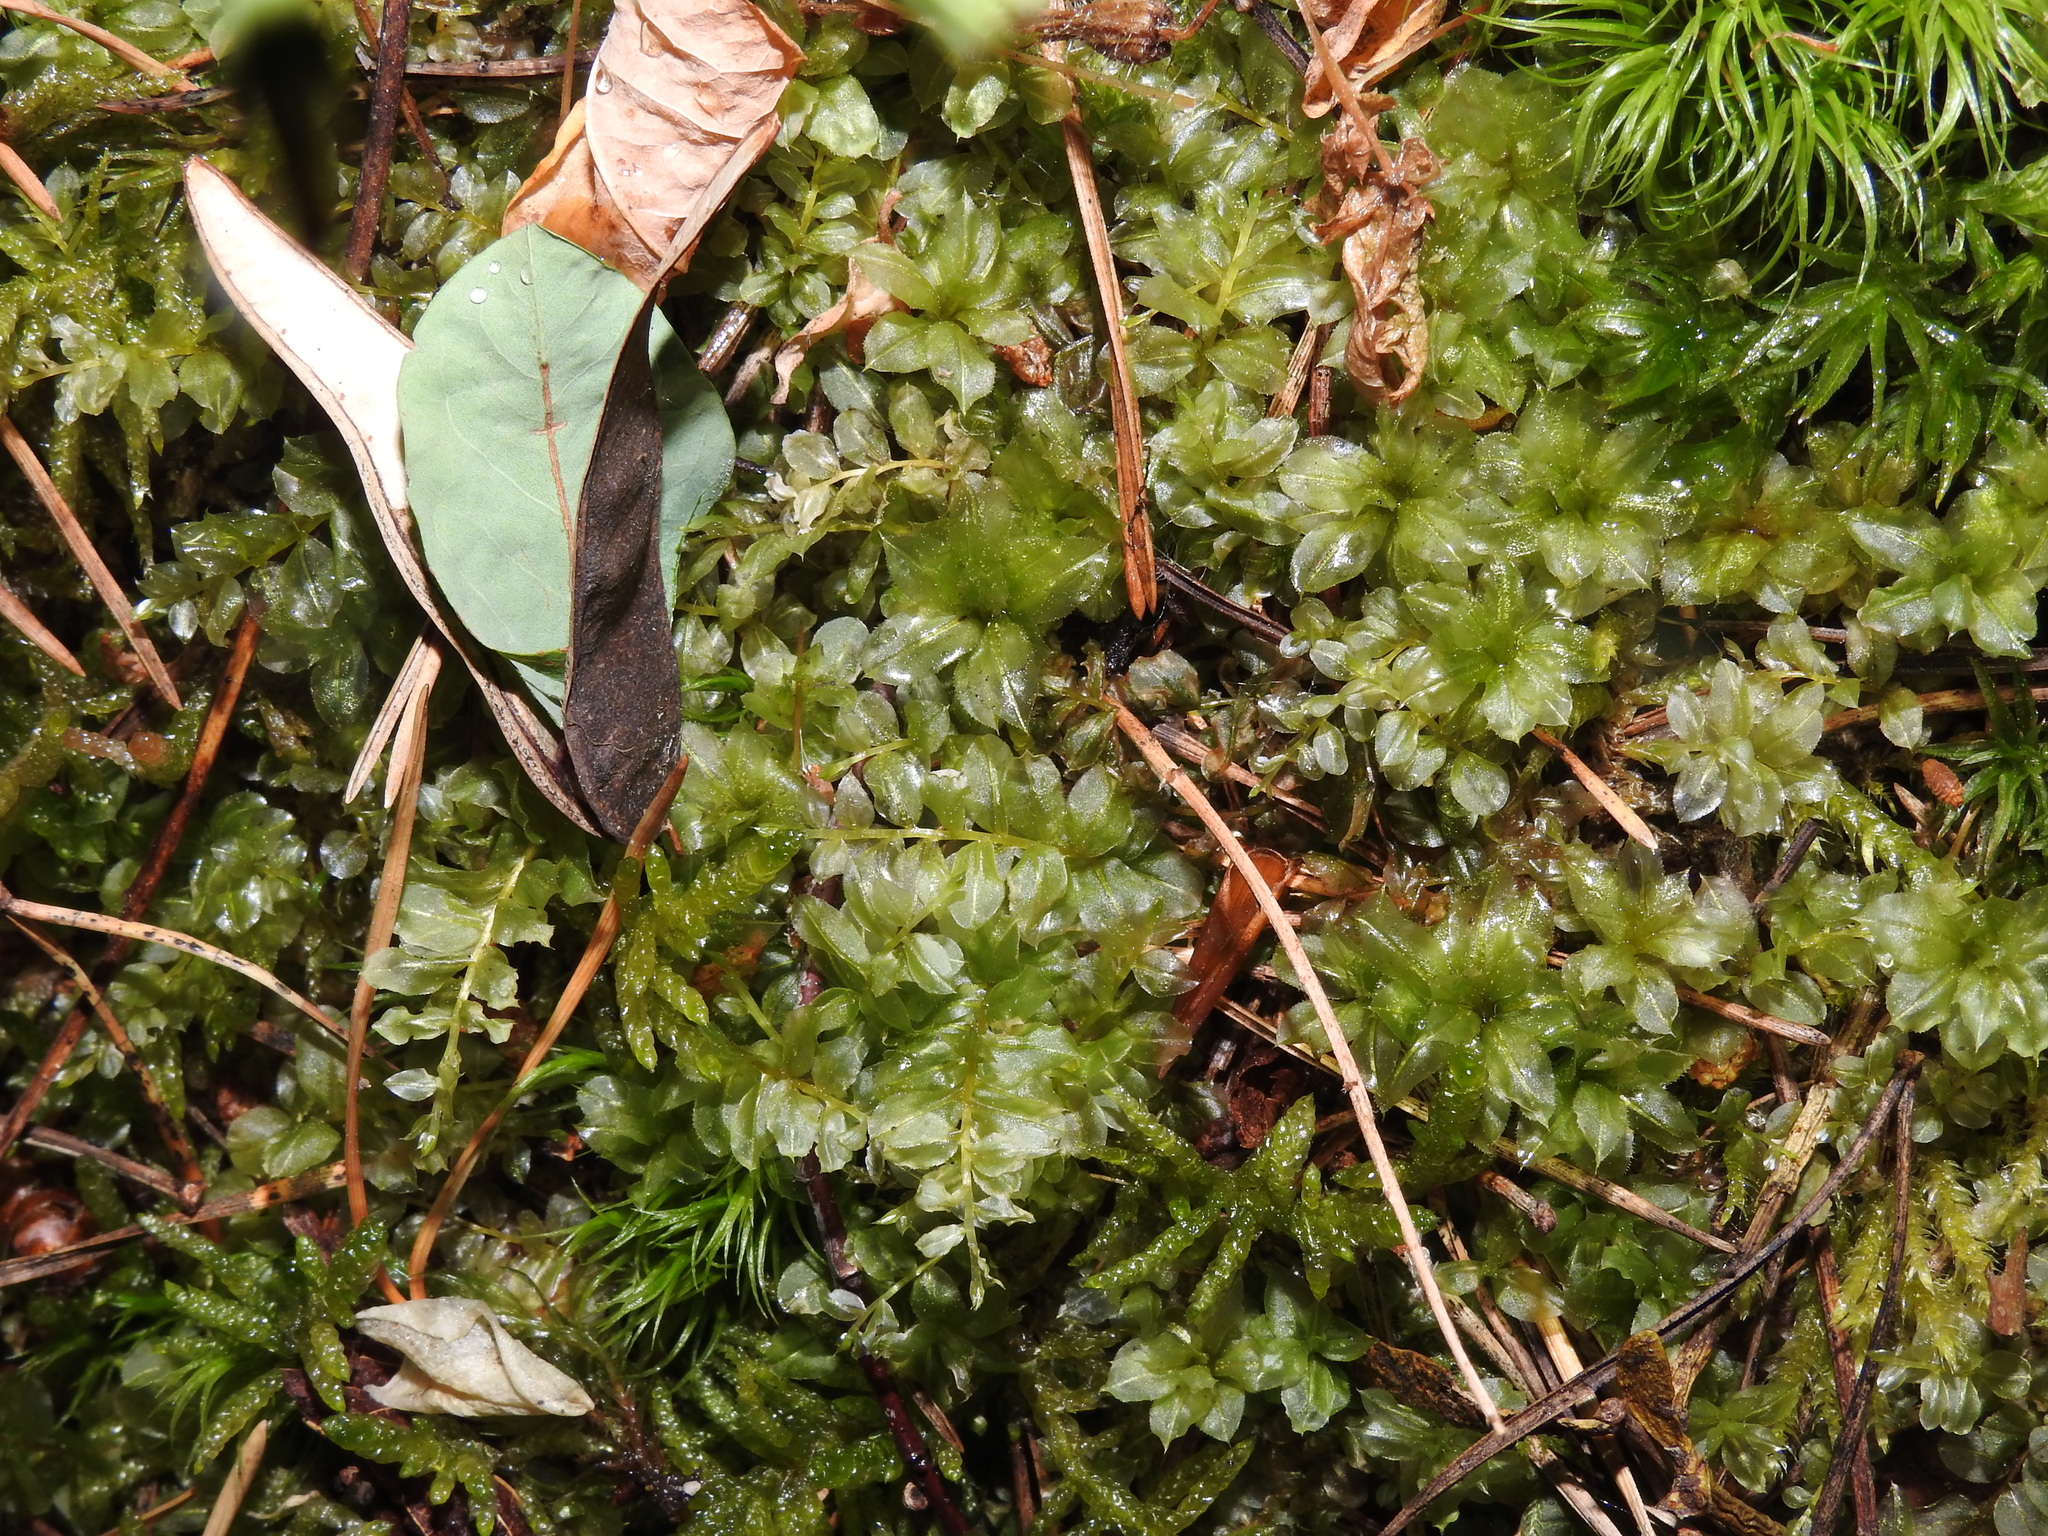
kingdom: Plantae
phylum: Bryophyta
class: Bryopsida
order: Bryales
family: Mniaceae
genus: Plagiomnium
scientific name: Plagiomnium affine
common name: Many-fruited thyme-moss
